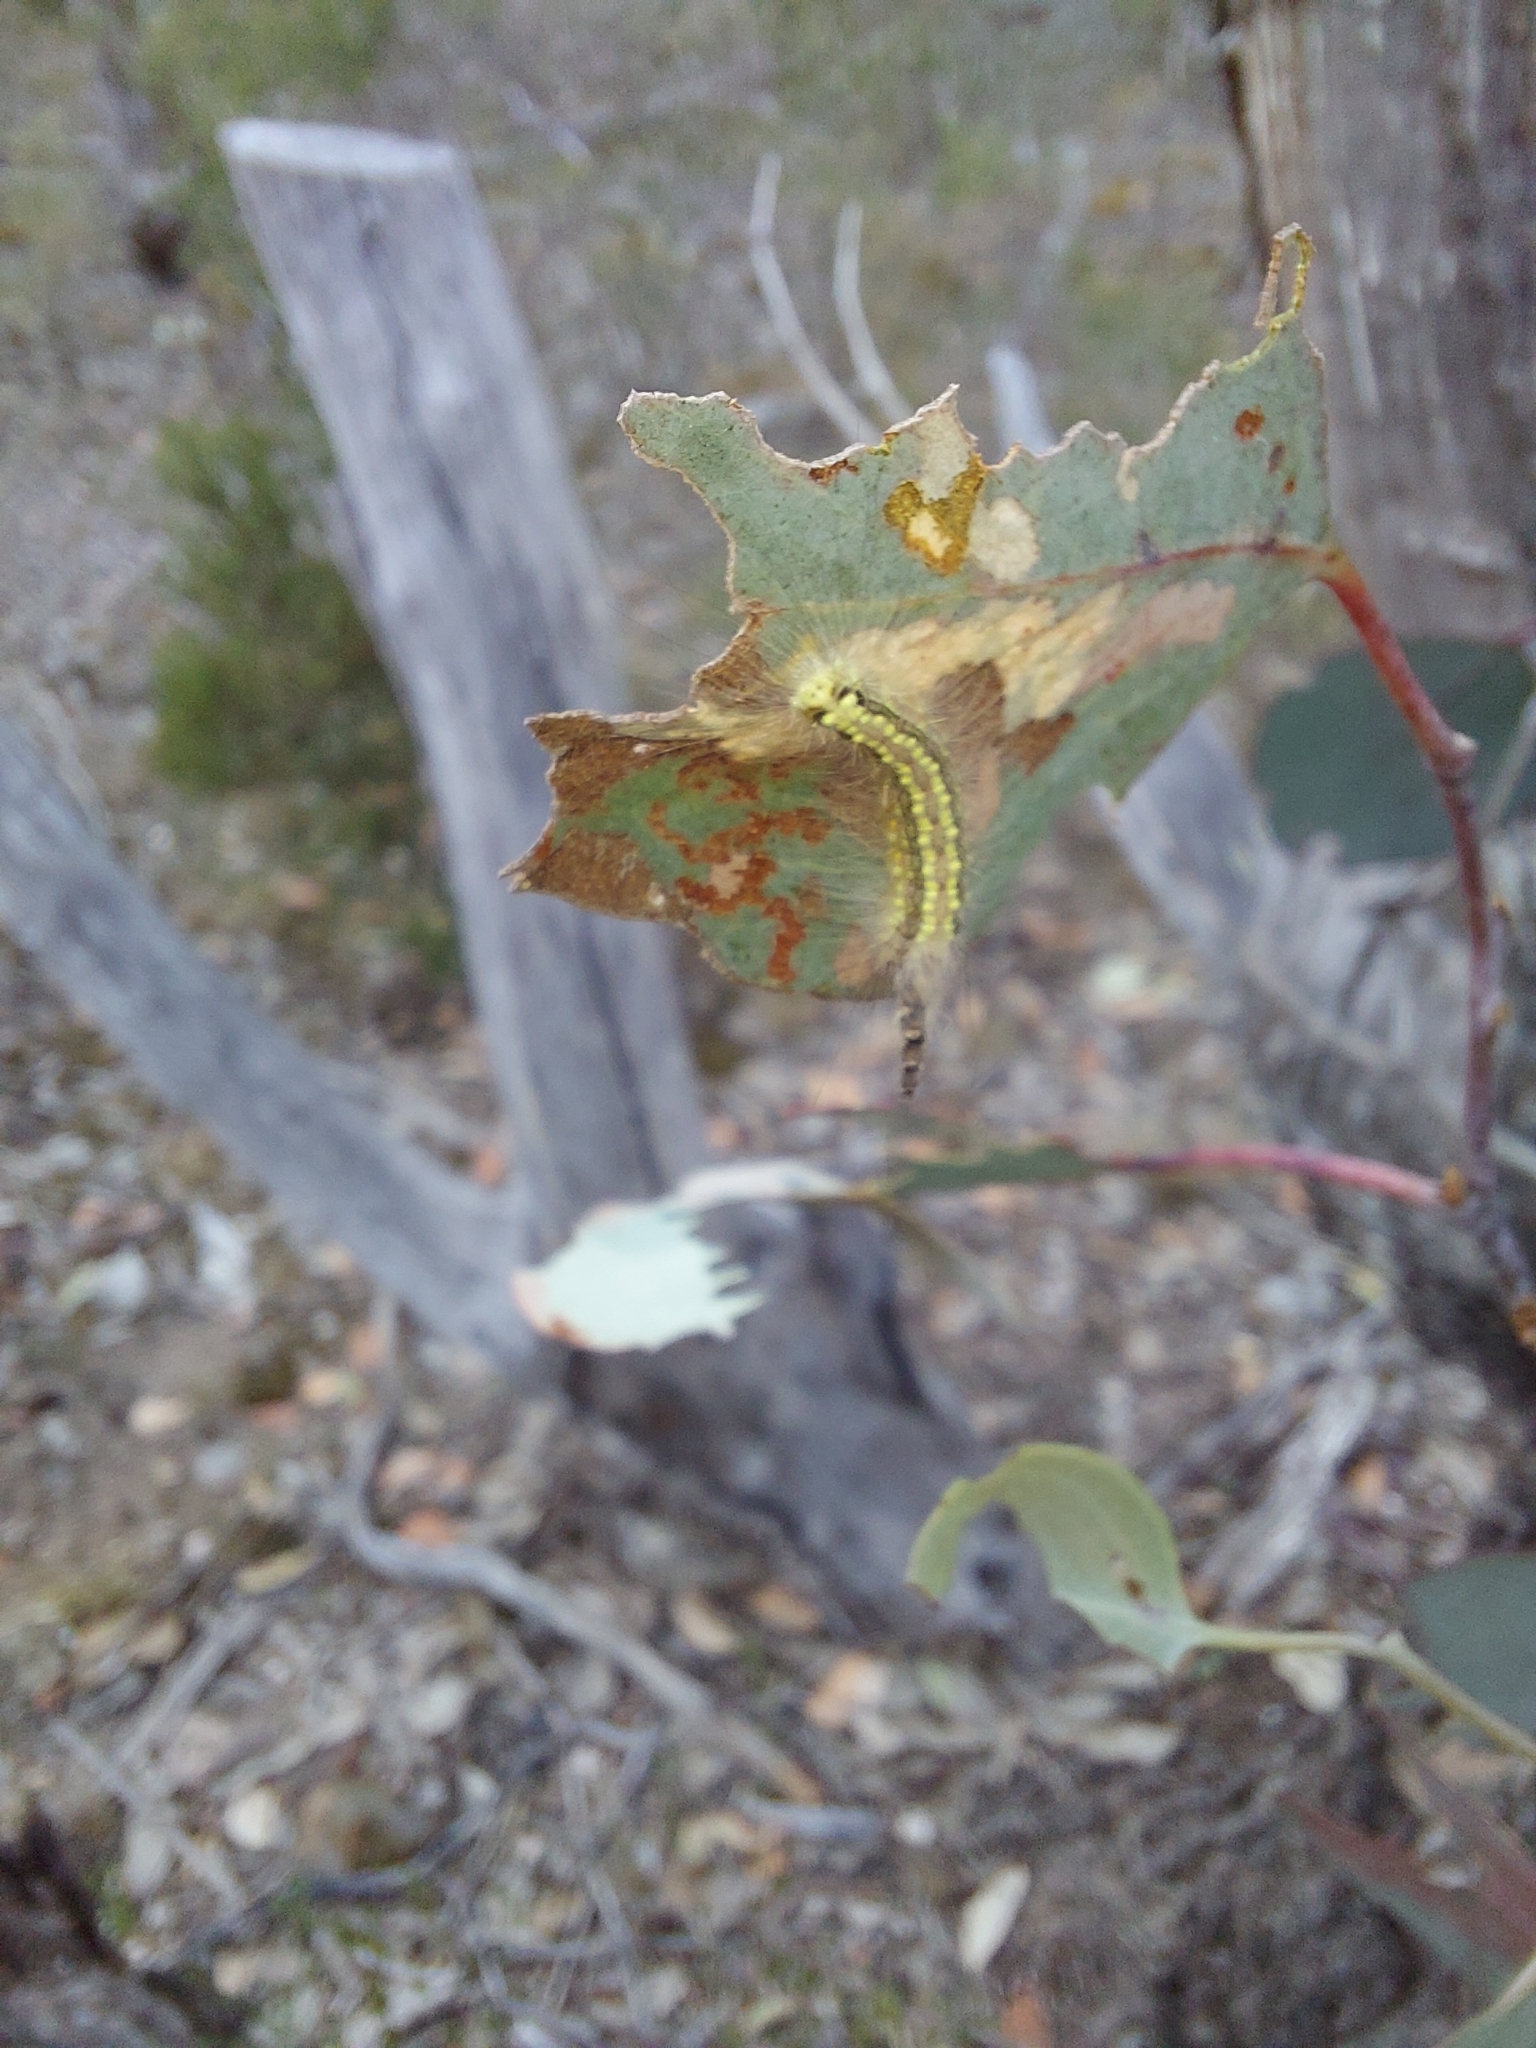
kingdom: Animalia
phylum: Arthropoda
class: Insecta
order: Lepidoptera
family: Nolidae
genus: Uraba
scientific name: Uraba lugens
